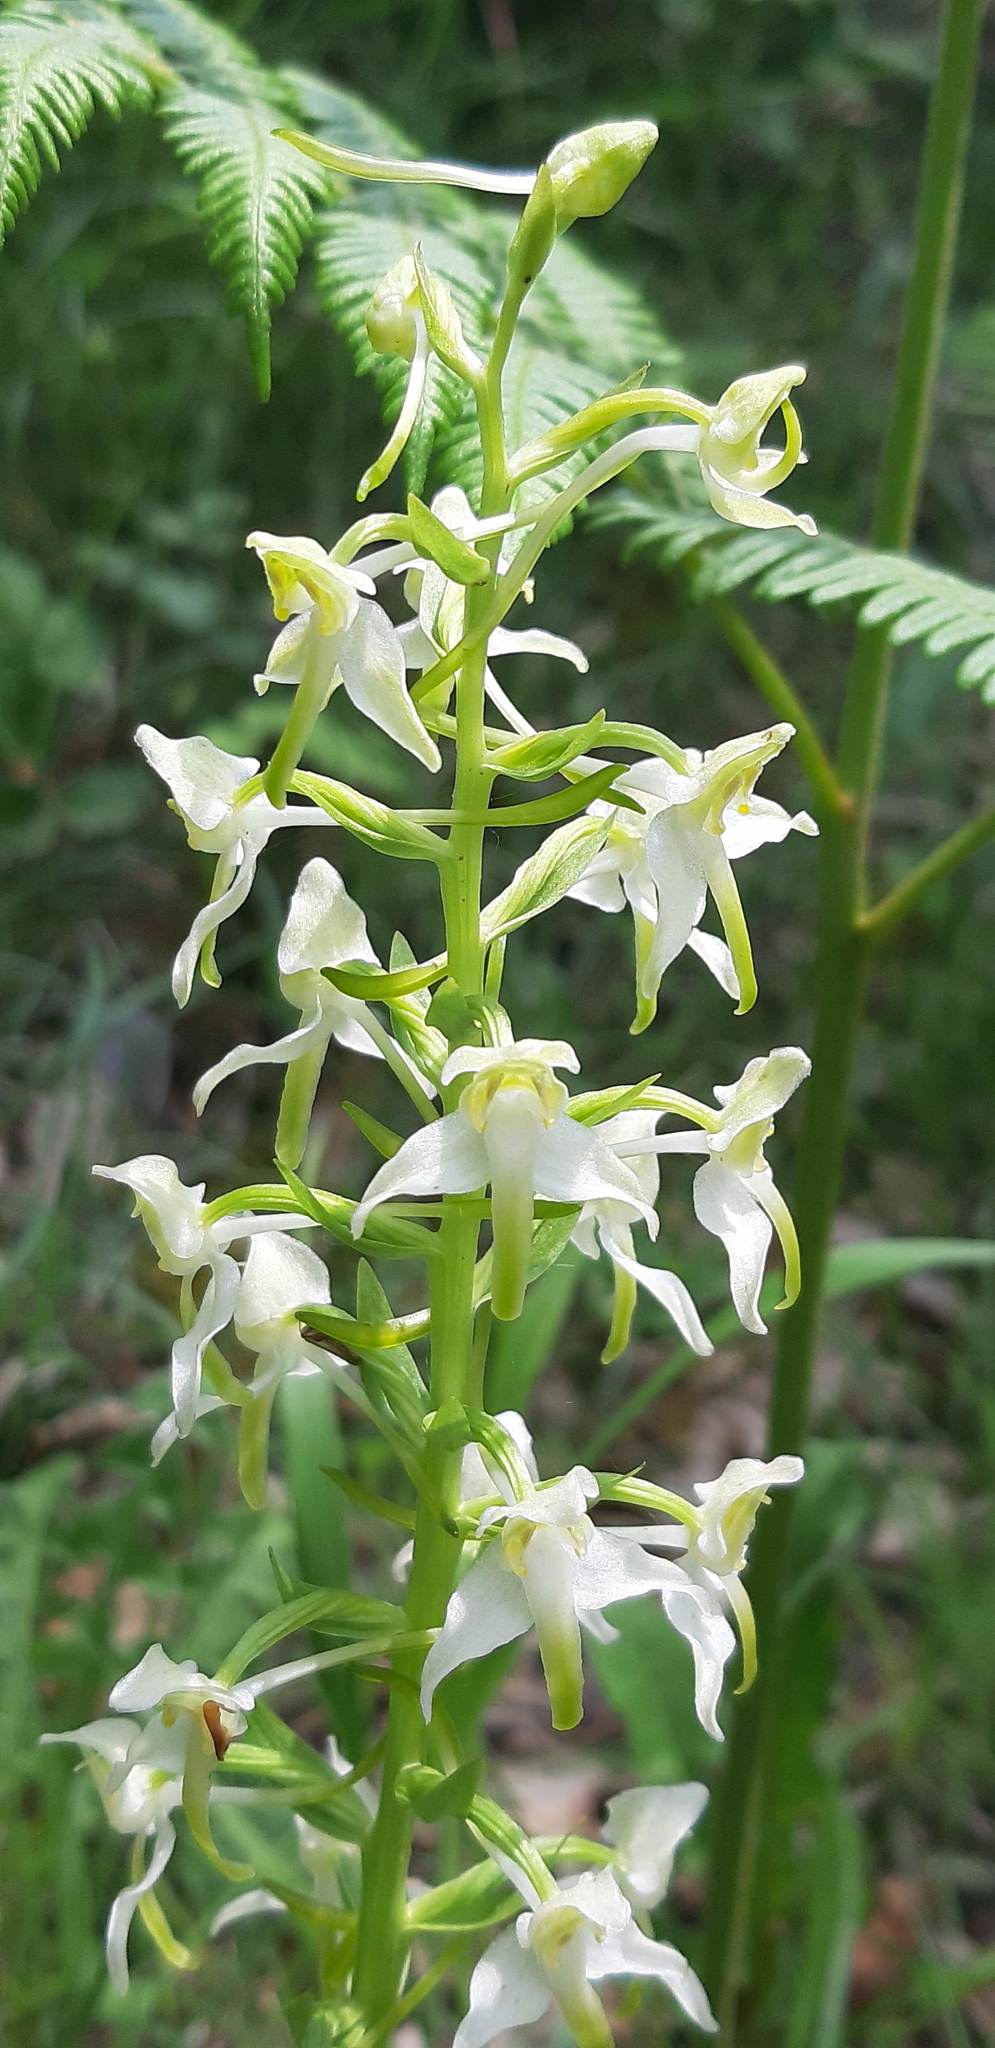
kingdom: Plantae
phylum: Tracheophyta
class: Liliopsida
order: Asparagales
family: Orchidaceae
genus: Platanthera
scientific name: Platanthera chlorantha
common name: Greater butterfly-orchid
